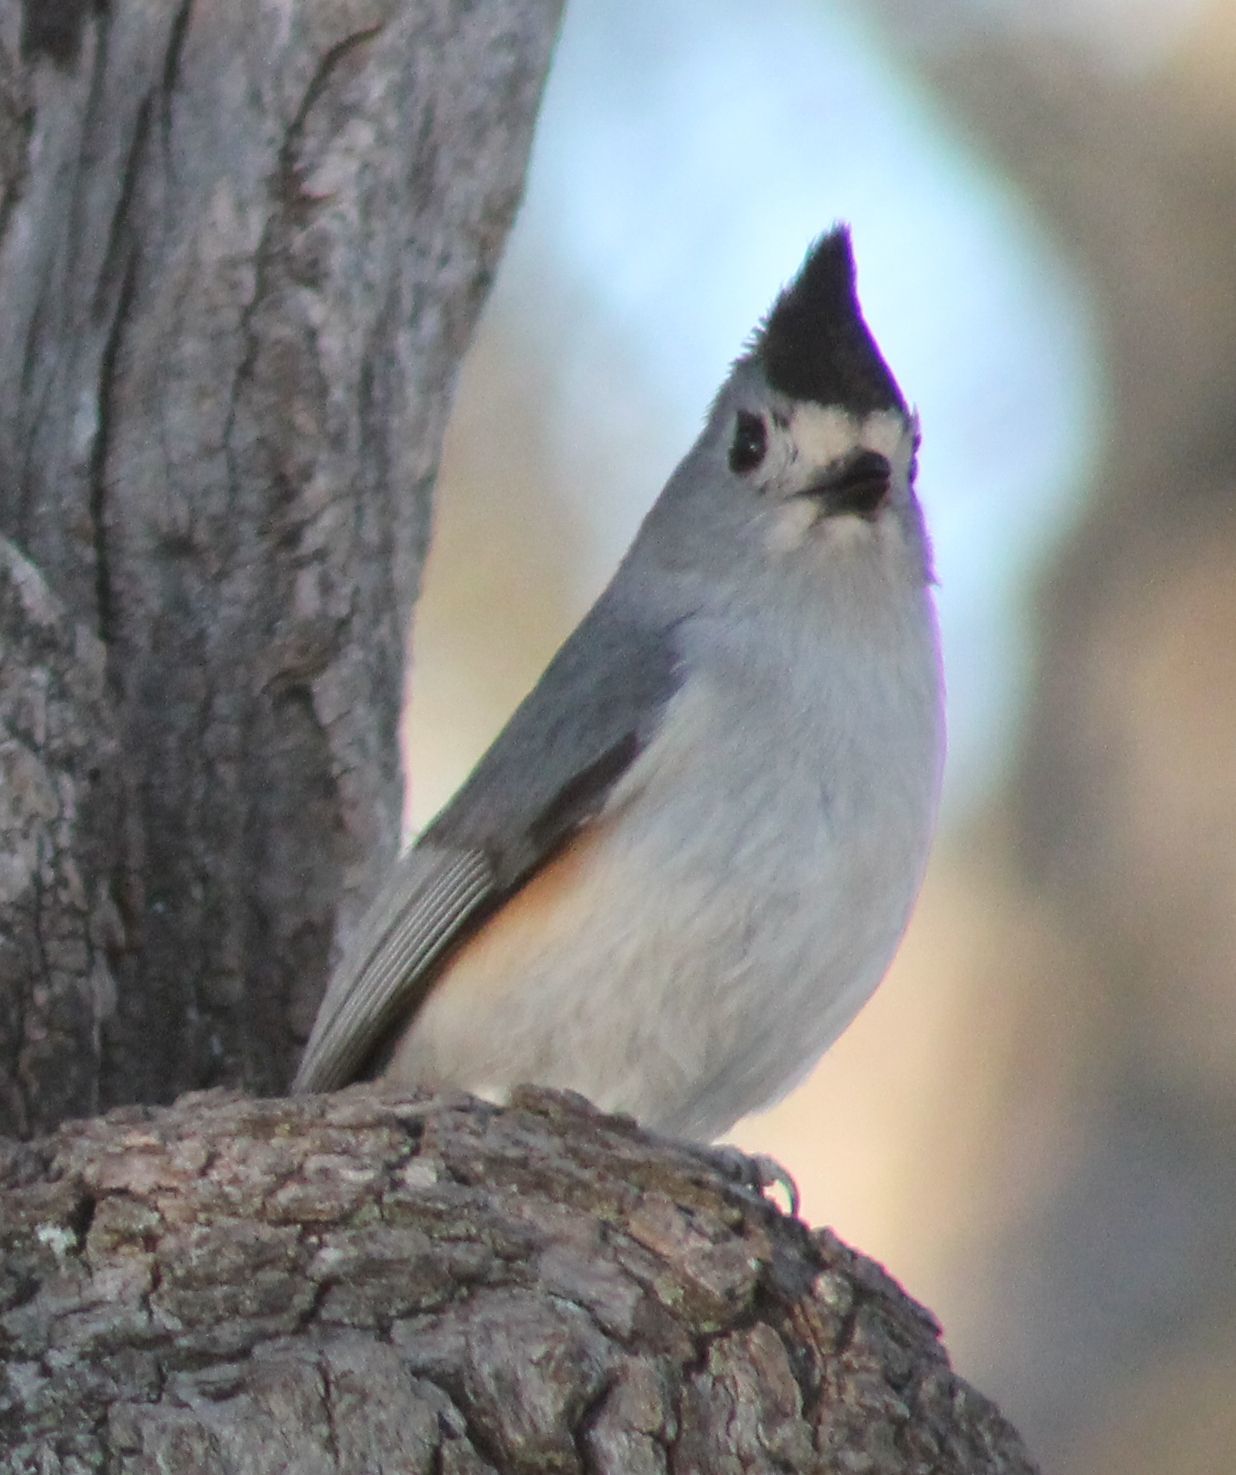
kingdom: Animalia
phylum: Chordata
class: Aves
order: Passeriformes
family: Paridae
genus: Baeolophus
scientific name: Baeolophus atricristatus
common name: Black-crested titmouse
